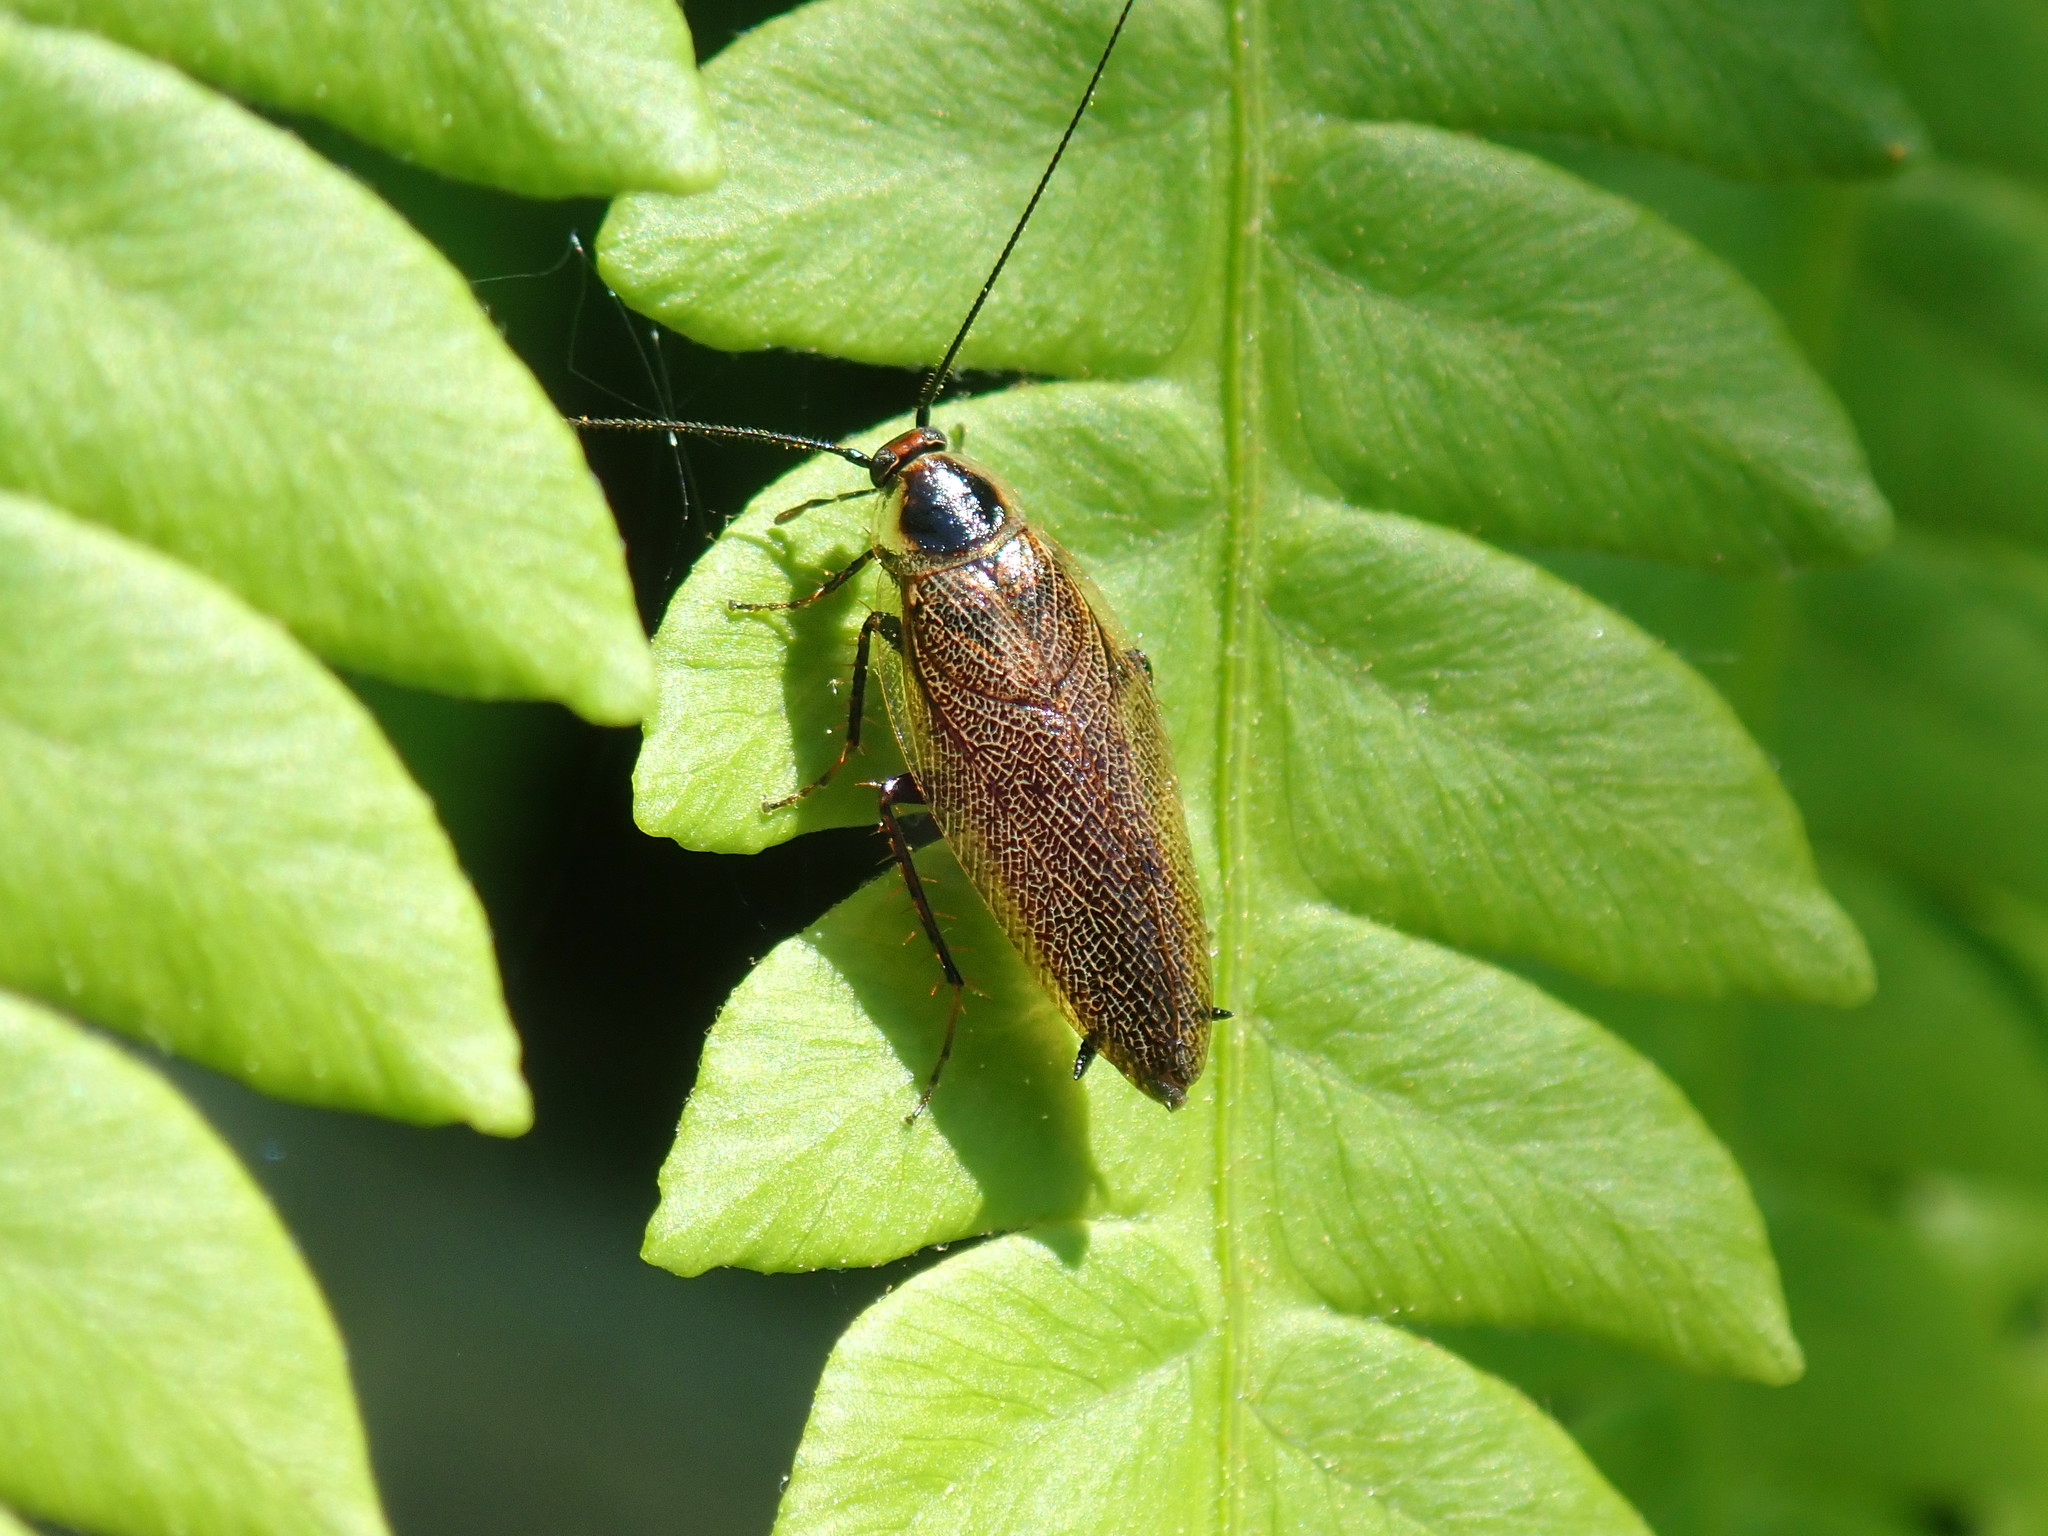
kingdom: Animalia
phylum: Arthropoda
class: Insecta
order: Blattodea
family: Ectobiidae
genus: Ectobius
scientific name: Ectobius lapponicus
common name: Dusky cockroach
